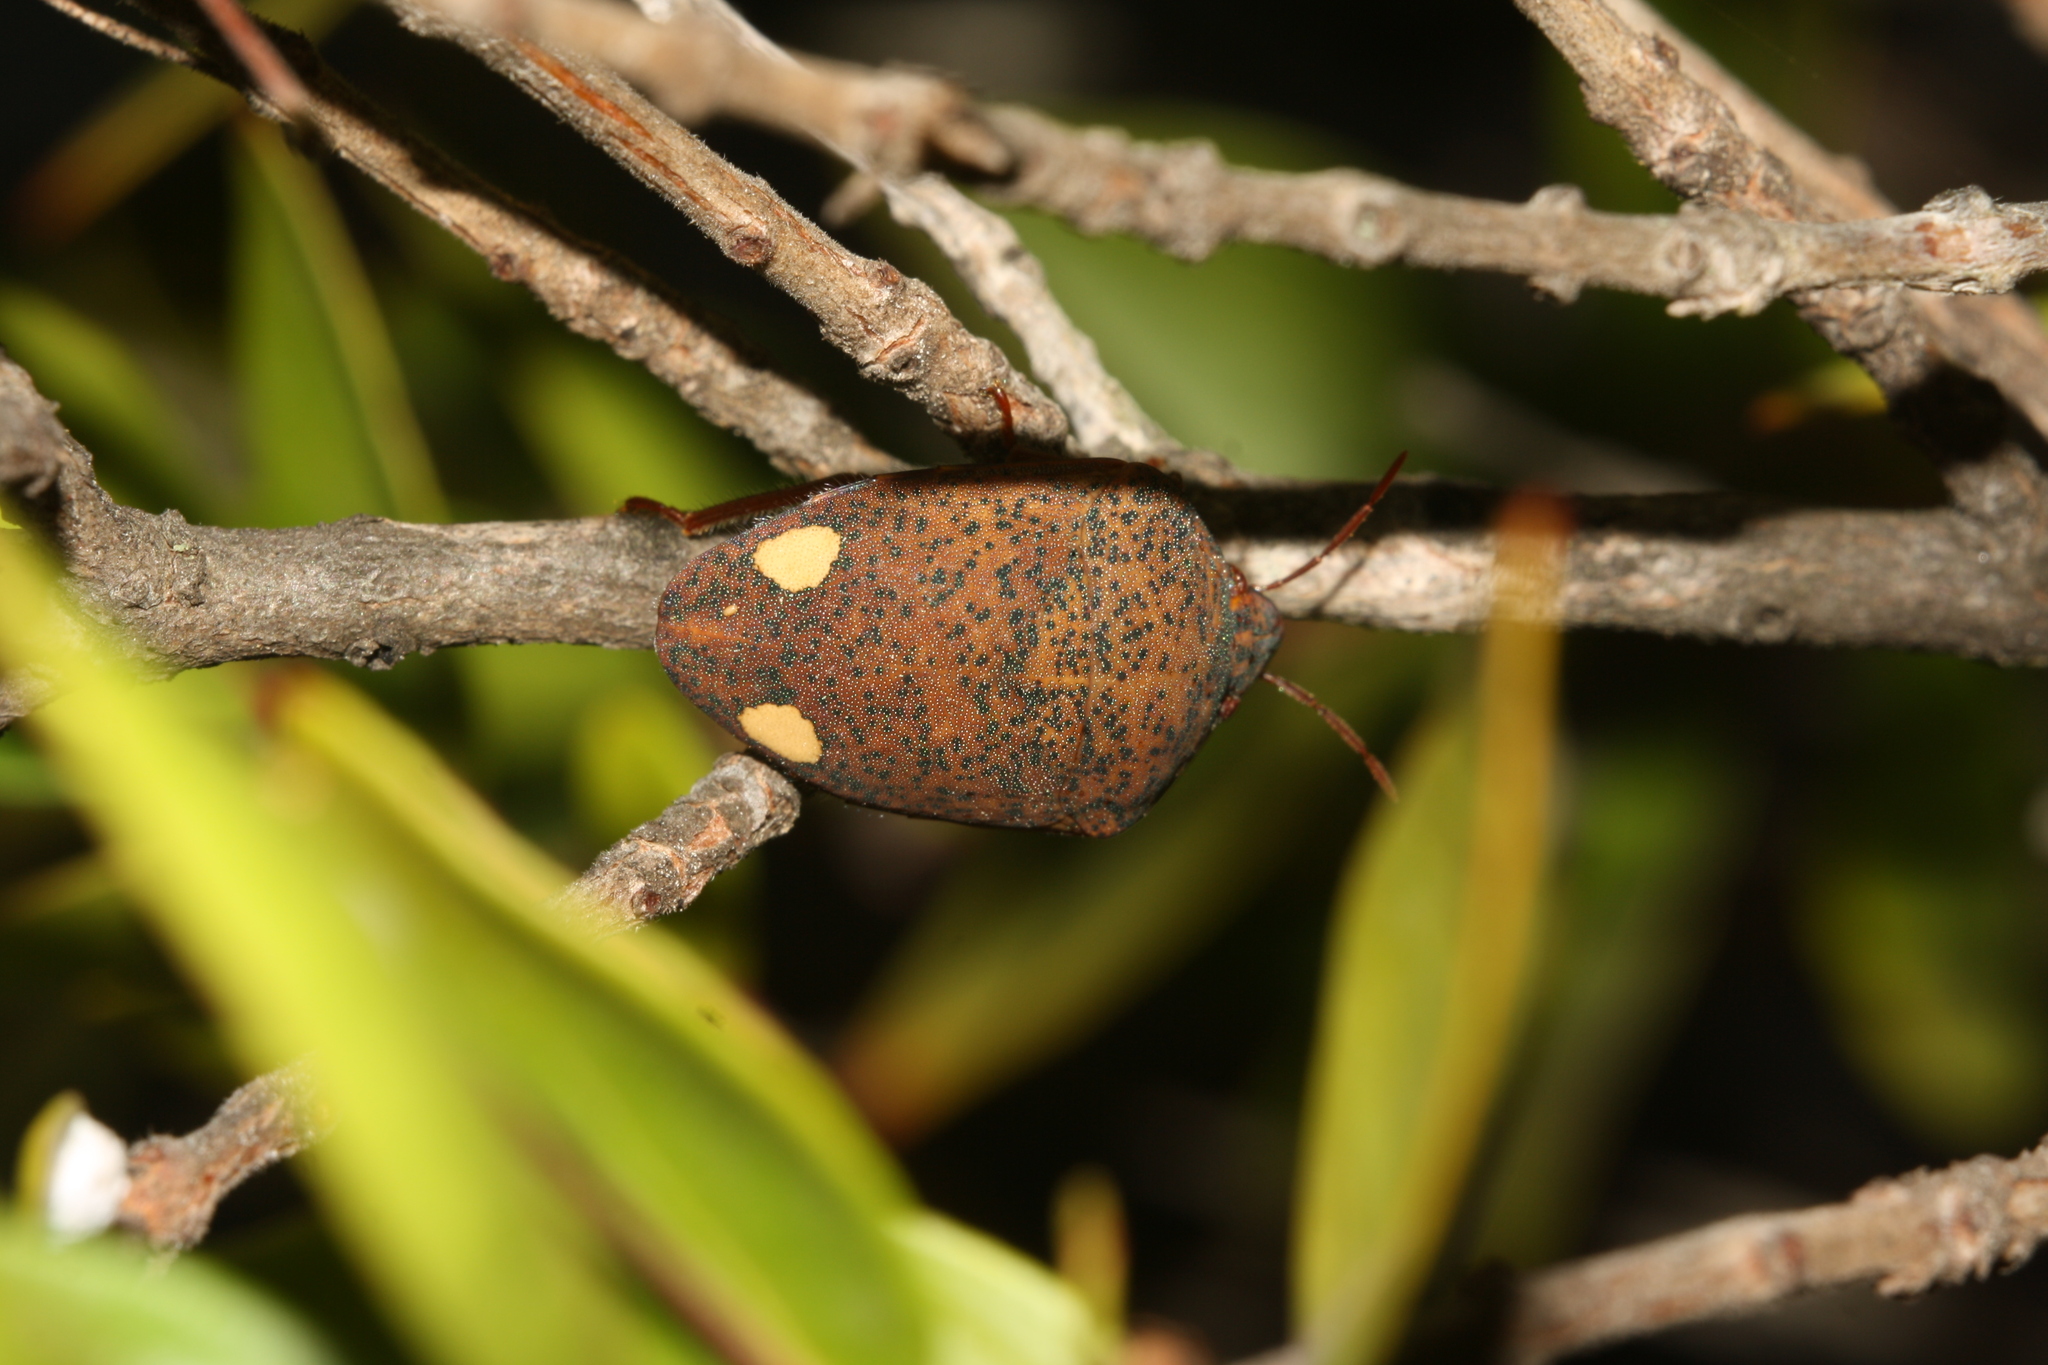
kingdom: Animalia
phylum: Arthropoda
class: Insecta
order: Hemiptera
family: Scutelleridae
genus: Solenosthedium
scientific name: Solenosthedium bilunatum
